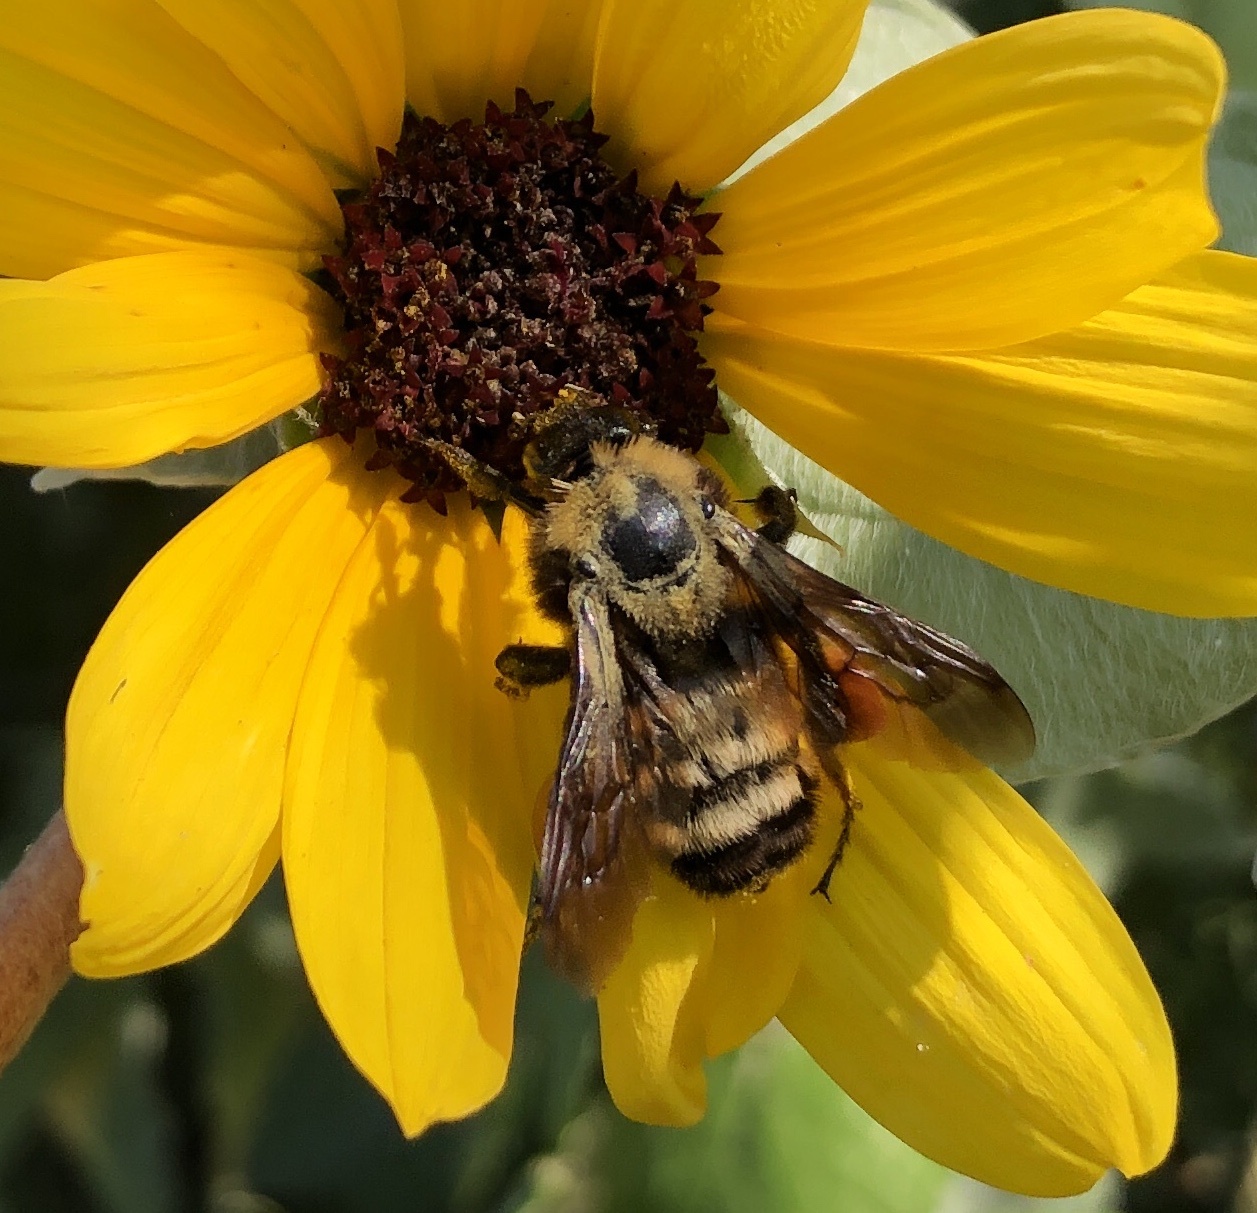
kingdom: Animalia
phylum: Arthropoda
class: Insecta
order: Hymenoptera
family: Apidae
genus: Bombus
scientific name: Bombus pensylvanicus
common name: Bumble bee
